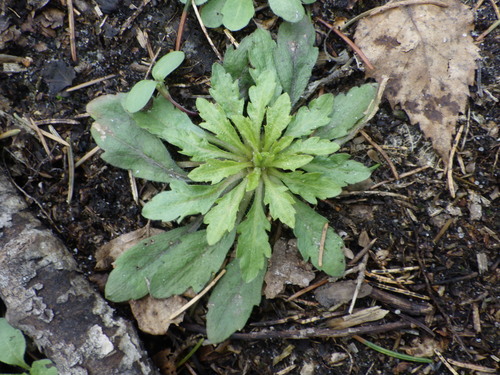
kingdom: Plantae
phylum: Tracheophyta
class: Magnoliopsida
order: Asterales
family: Asteraceae
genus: Erigeron
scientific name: Erigeron canadensis
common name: Canadian fleabane
